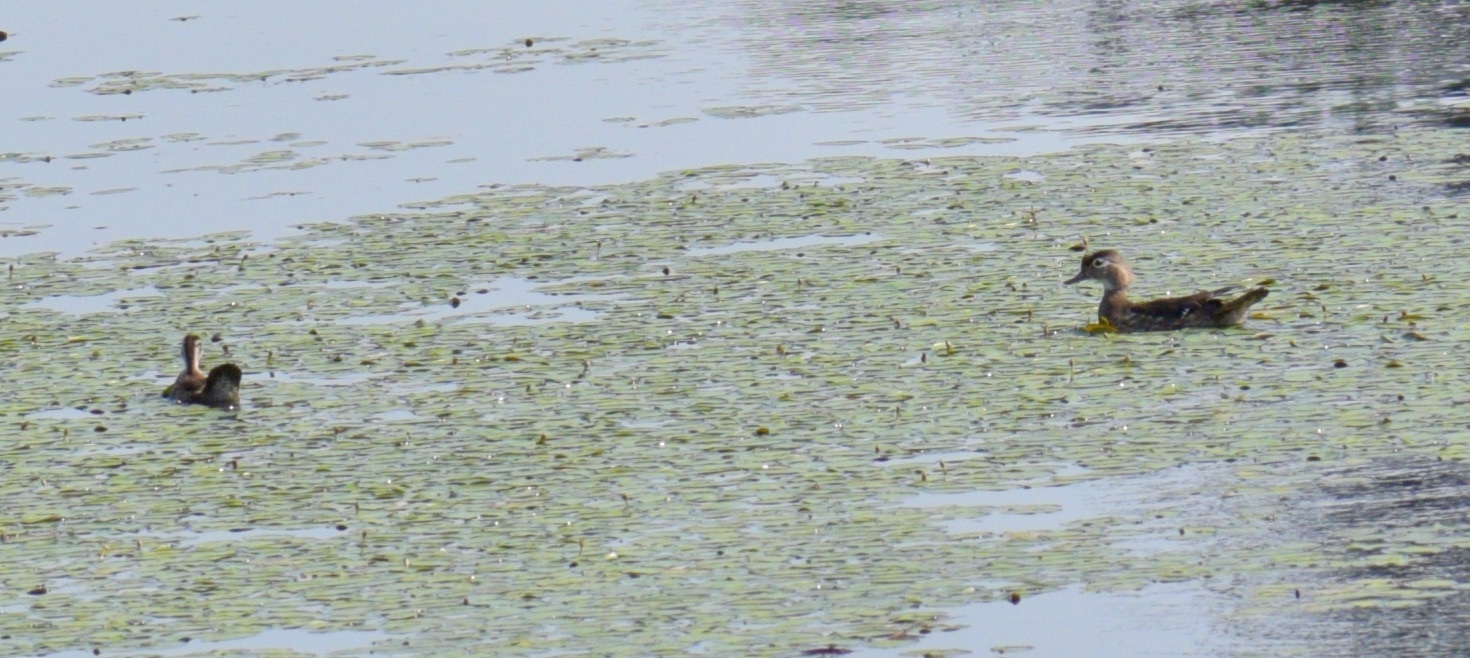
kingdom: Animalia
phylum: Chordata
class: Aves
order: Anseriformes
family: Anatidae
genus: Aix
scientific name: Aix sponsa
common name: Wood duck
